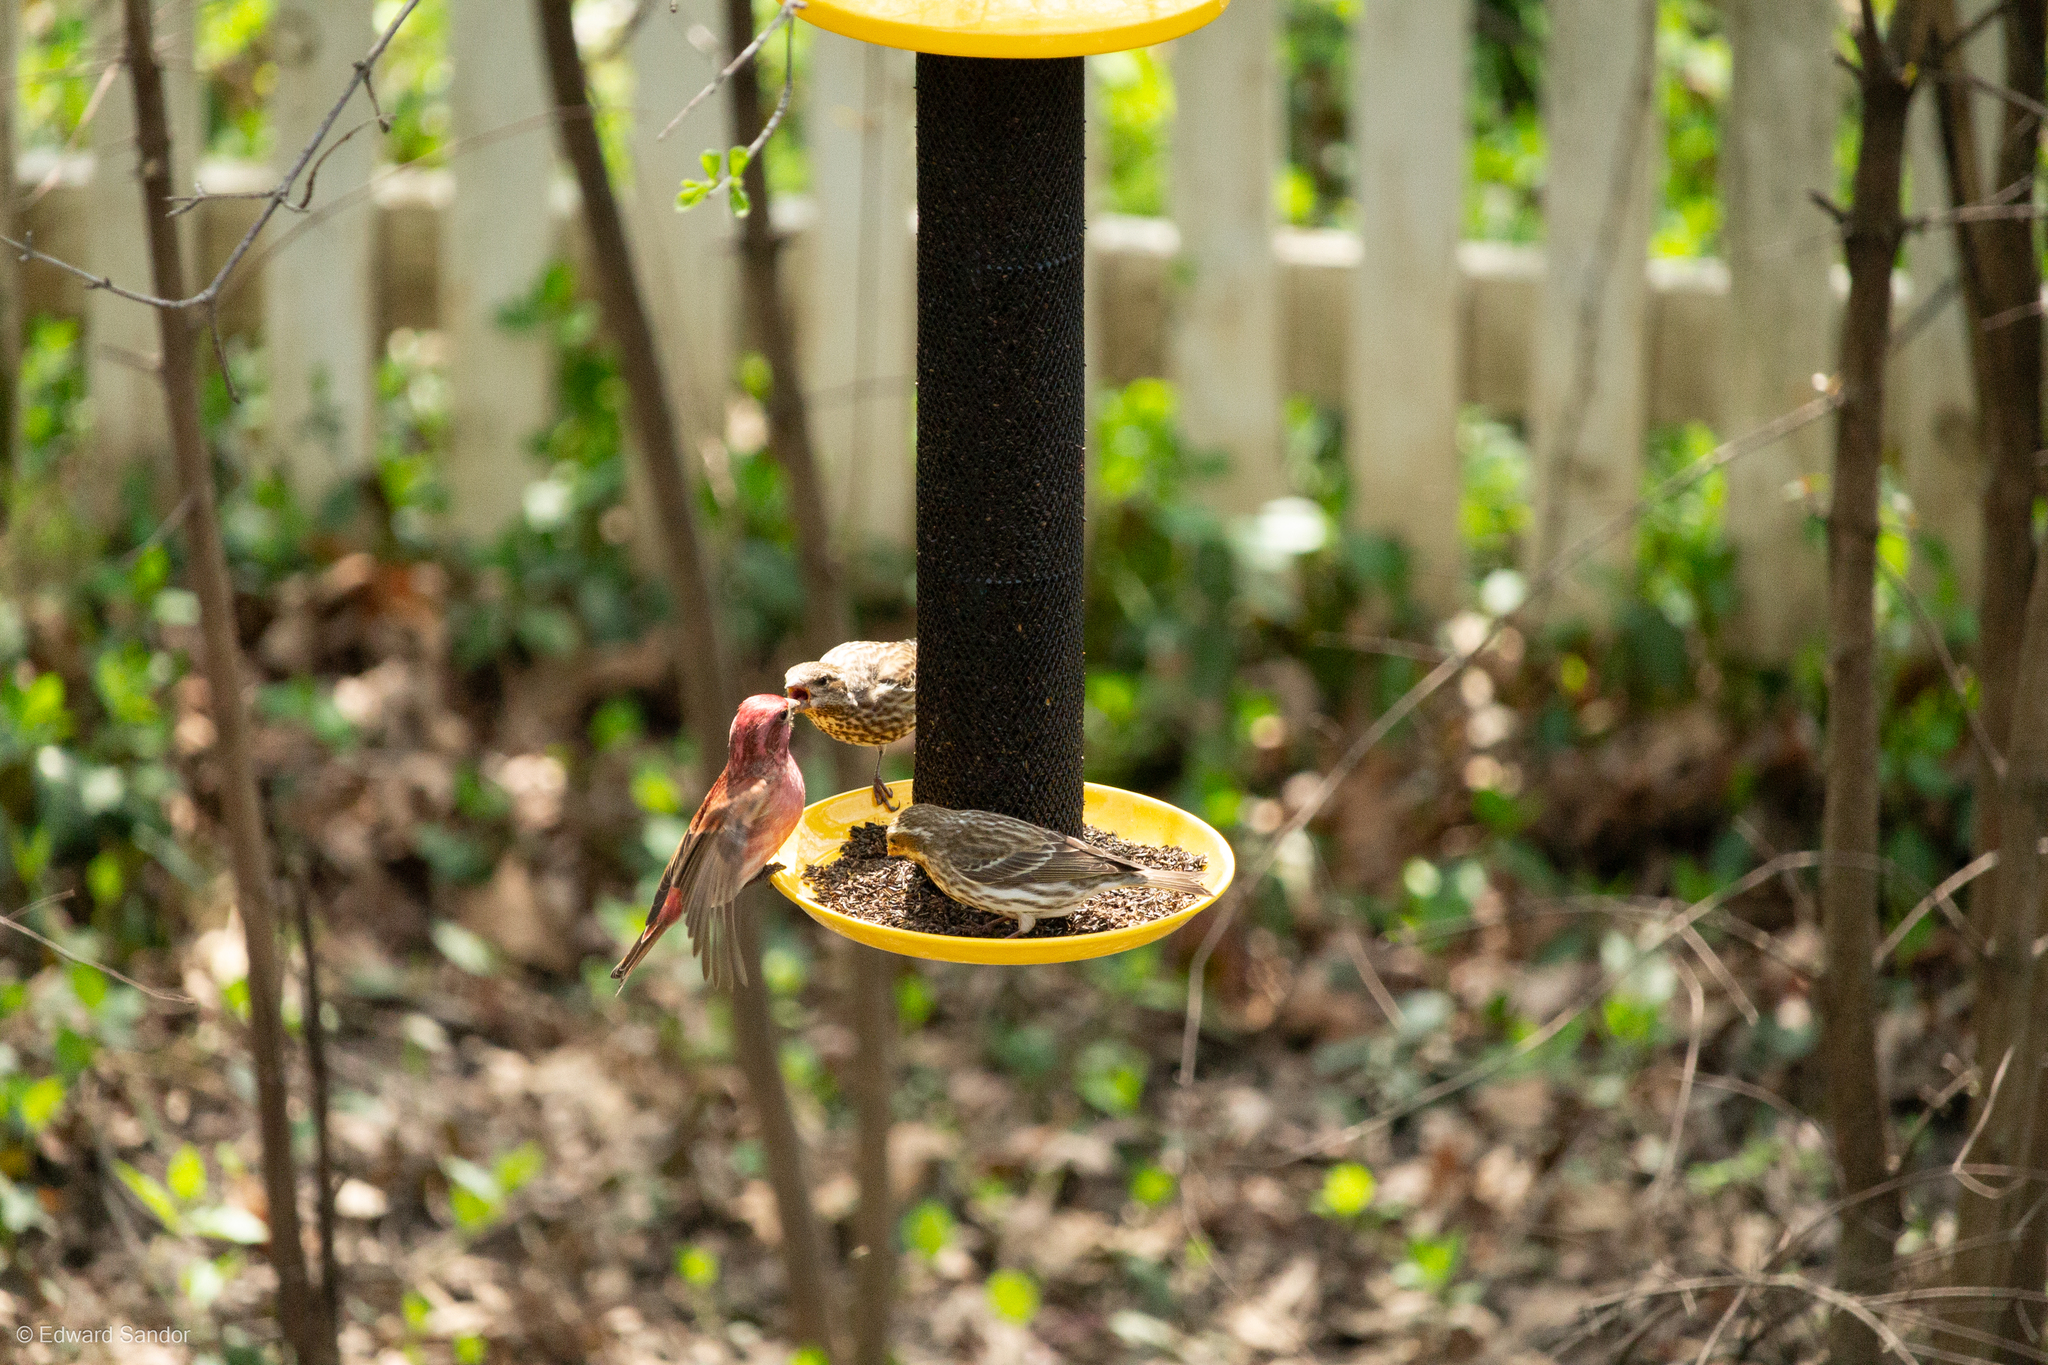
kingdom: Animalia
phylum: Chordata
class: Aves
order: Passeriformes
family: Fringillidae
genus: Haemorhous
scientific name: Haemorhous purpureus
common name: Purple finch
